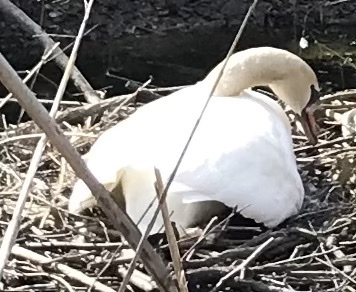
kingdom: Animalia
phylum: Chordata
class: Aves
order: Anseriformes
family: Anatidae
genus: Cygnus
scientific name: Cygnus olor
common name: Mute swan
